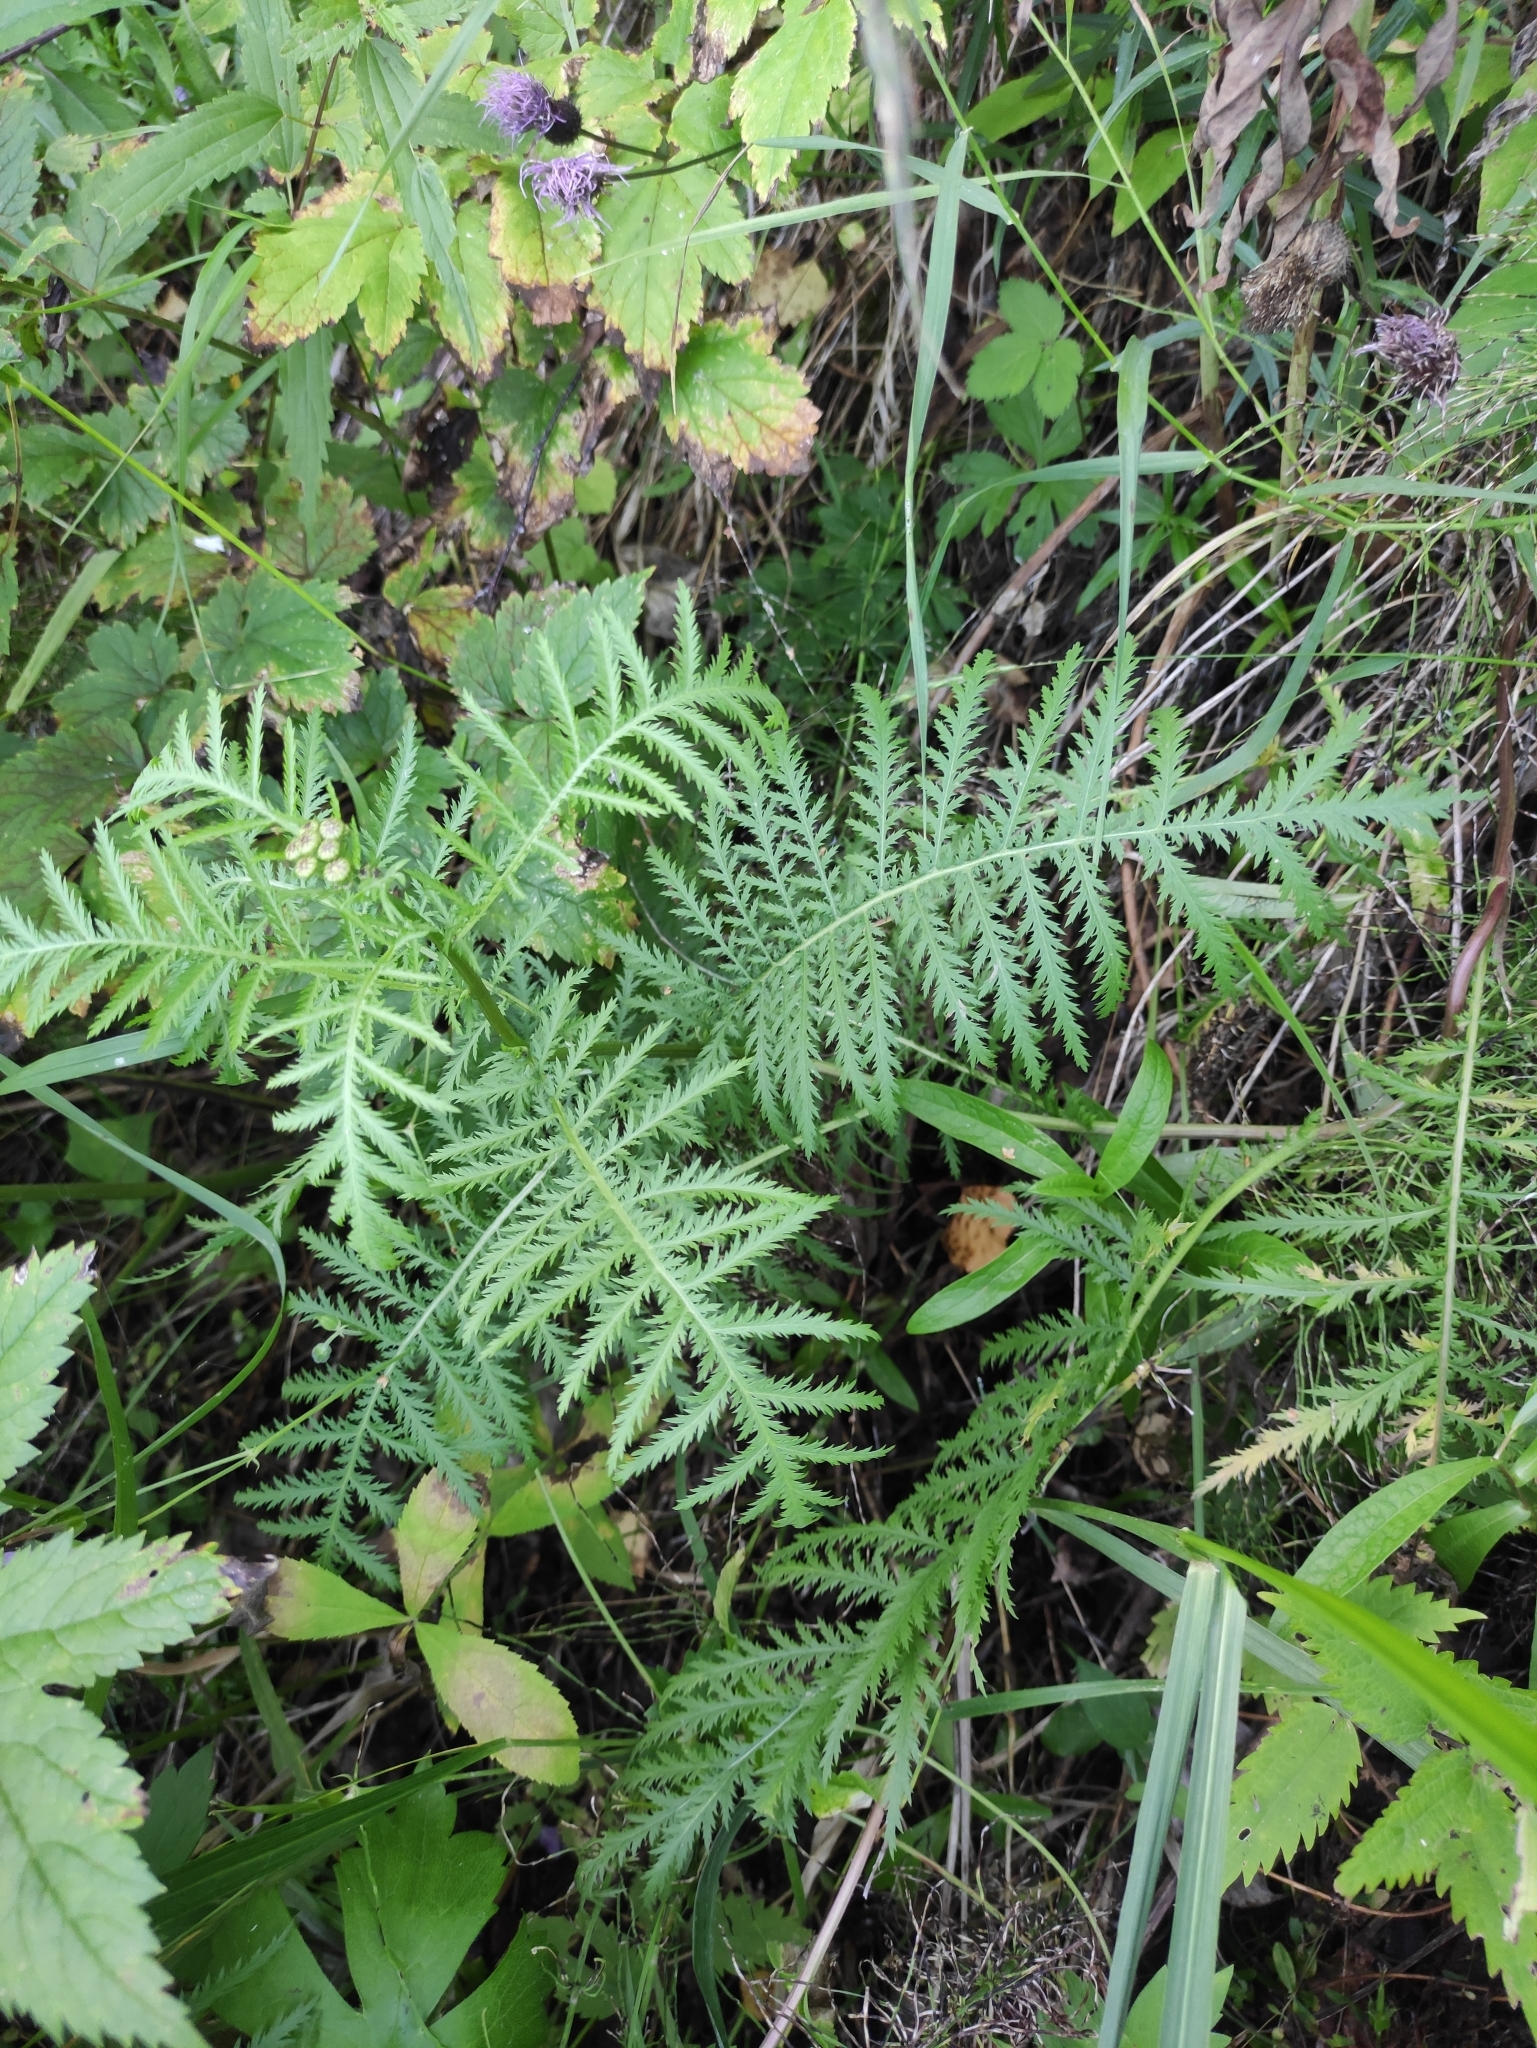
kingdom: Plantae
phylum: Tracheophyta
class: Magnoliopsida
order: Asterales
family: Asteraceae
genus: Tanacetum
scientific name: Tanacetum vulgare
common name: Common tansy
